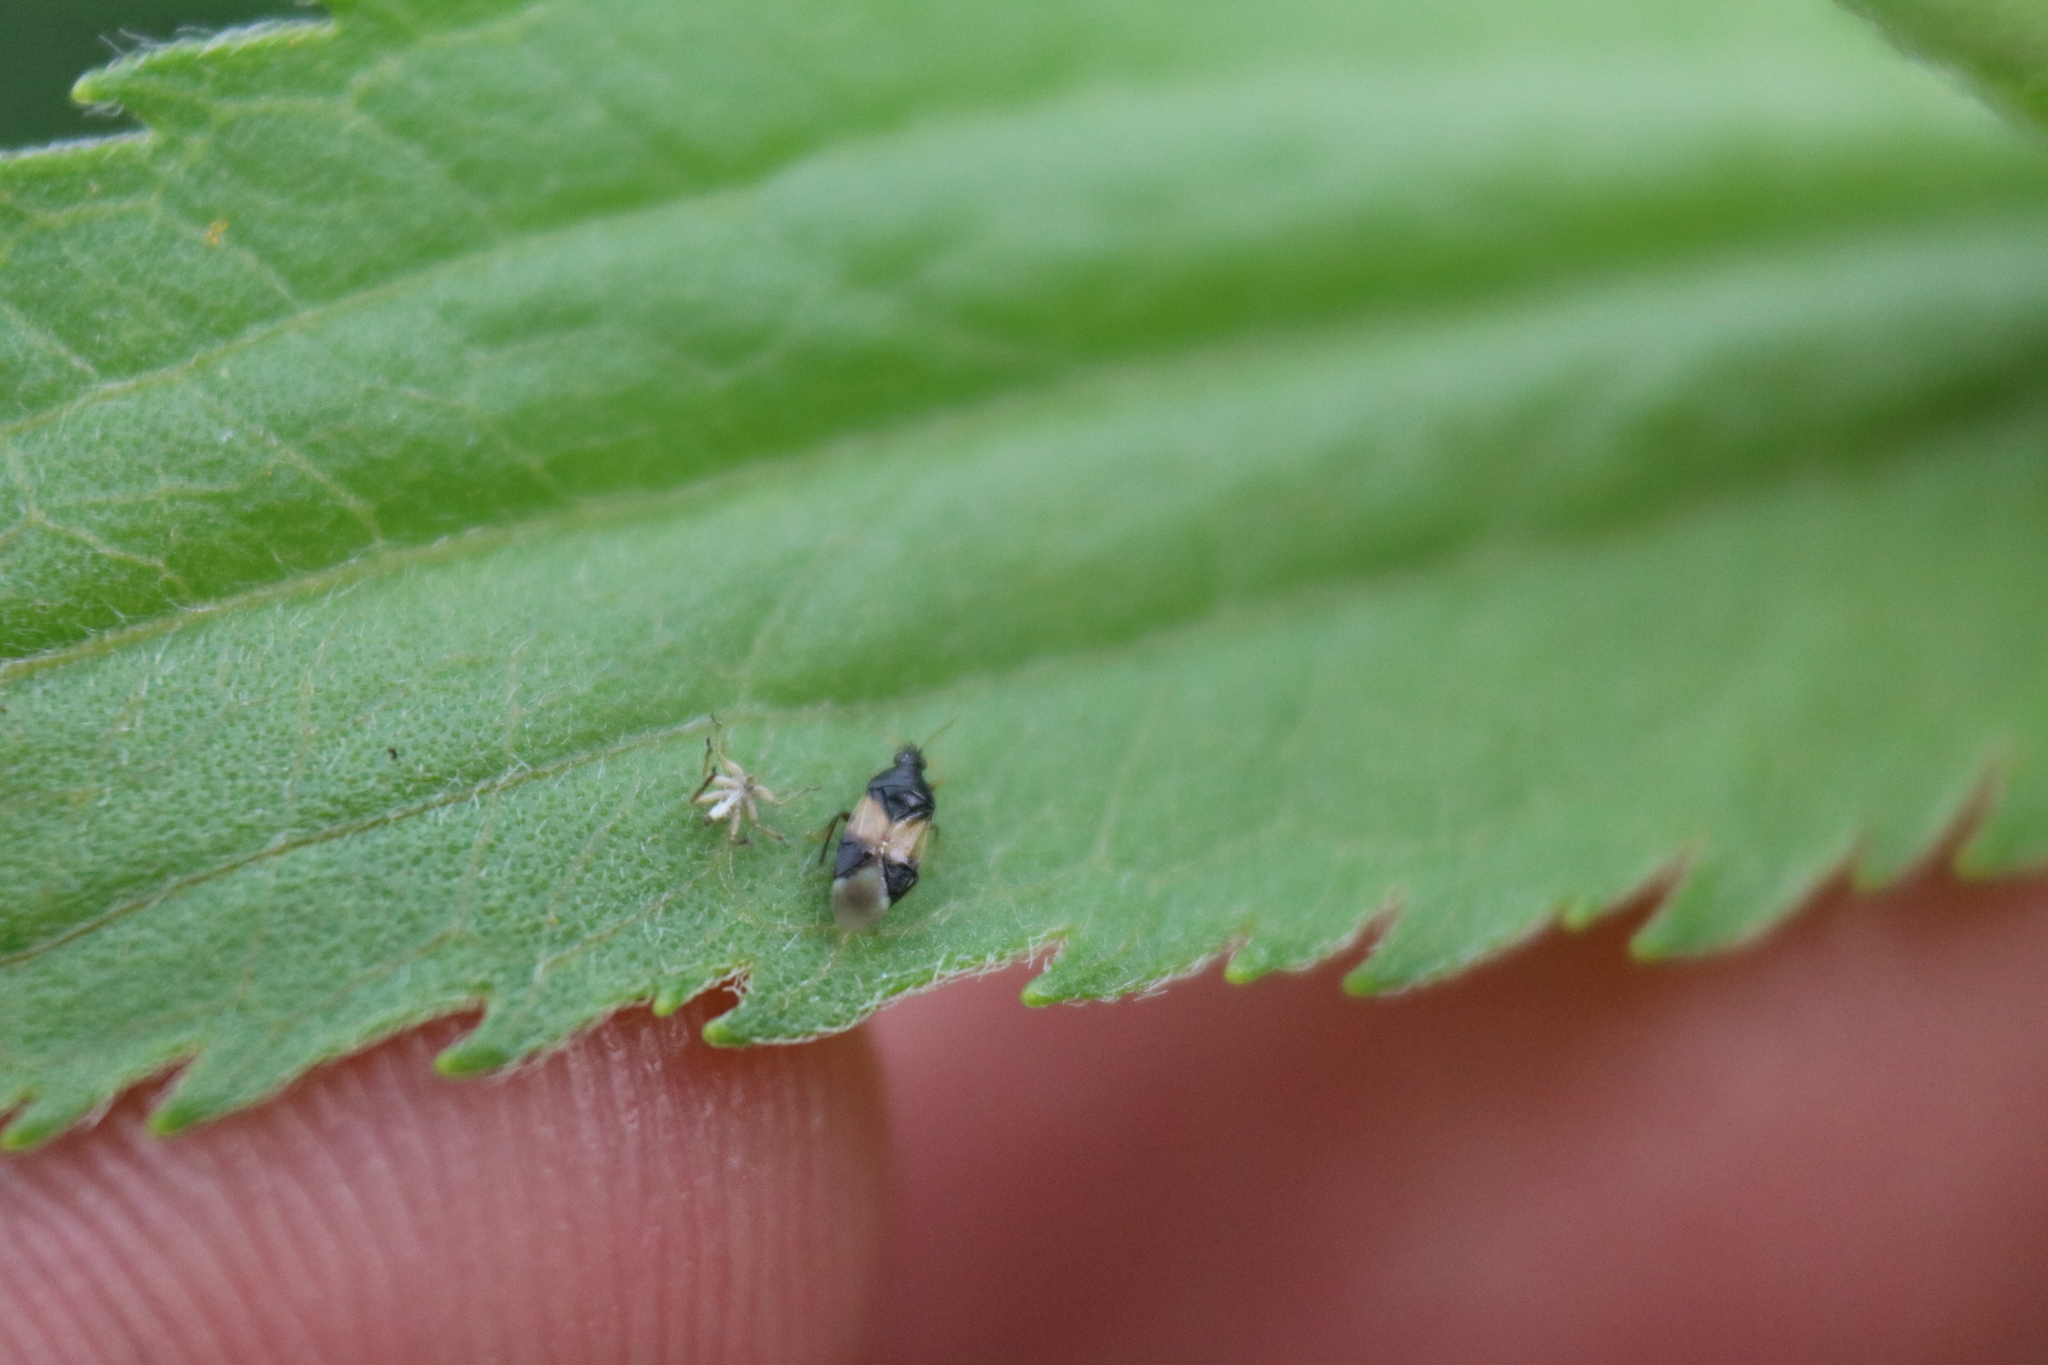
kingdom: Animalia
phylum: Arthropoda
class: Insecta
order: Hemiptera
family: Anthocoridae
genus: Orius
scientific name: Orius insidiosus
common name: Insidious flower bug
